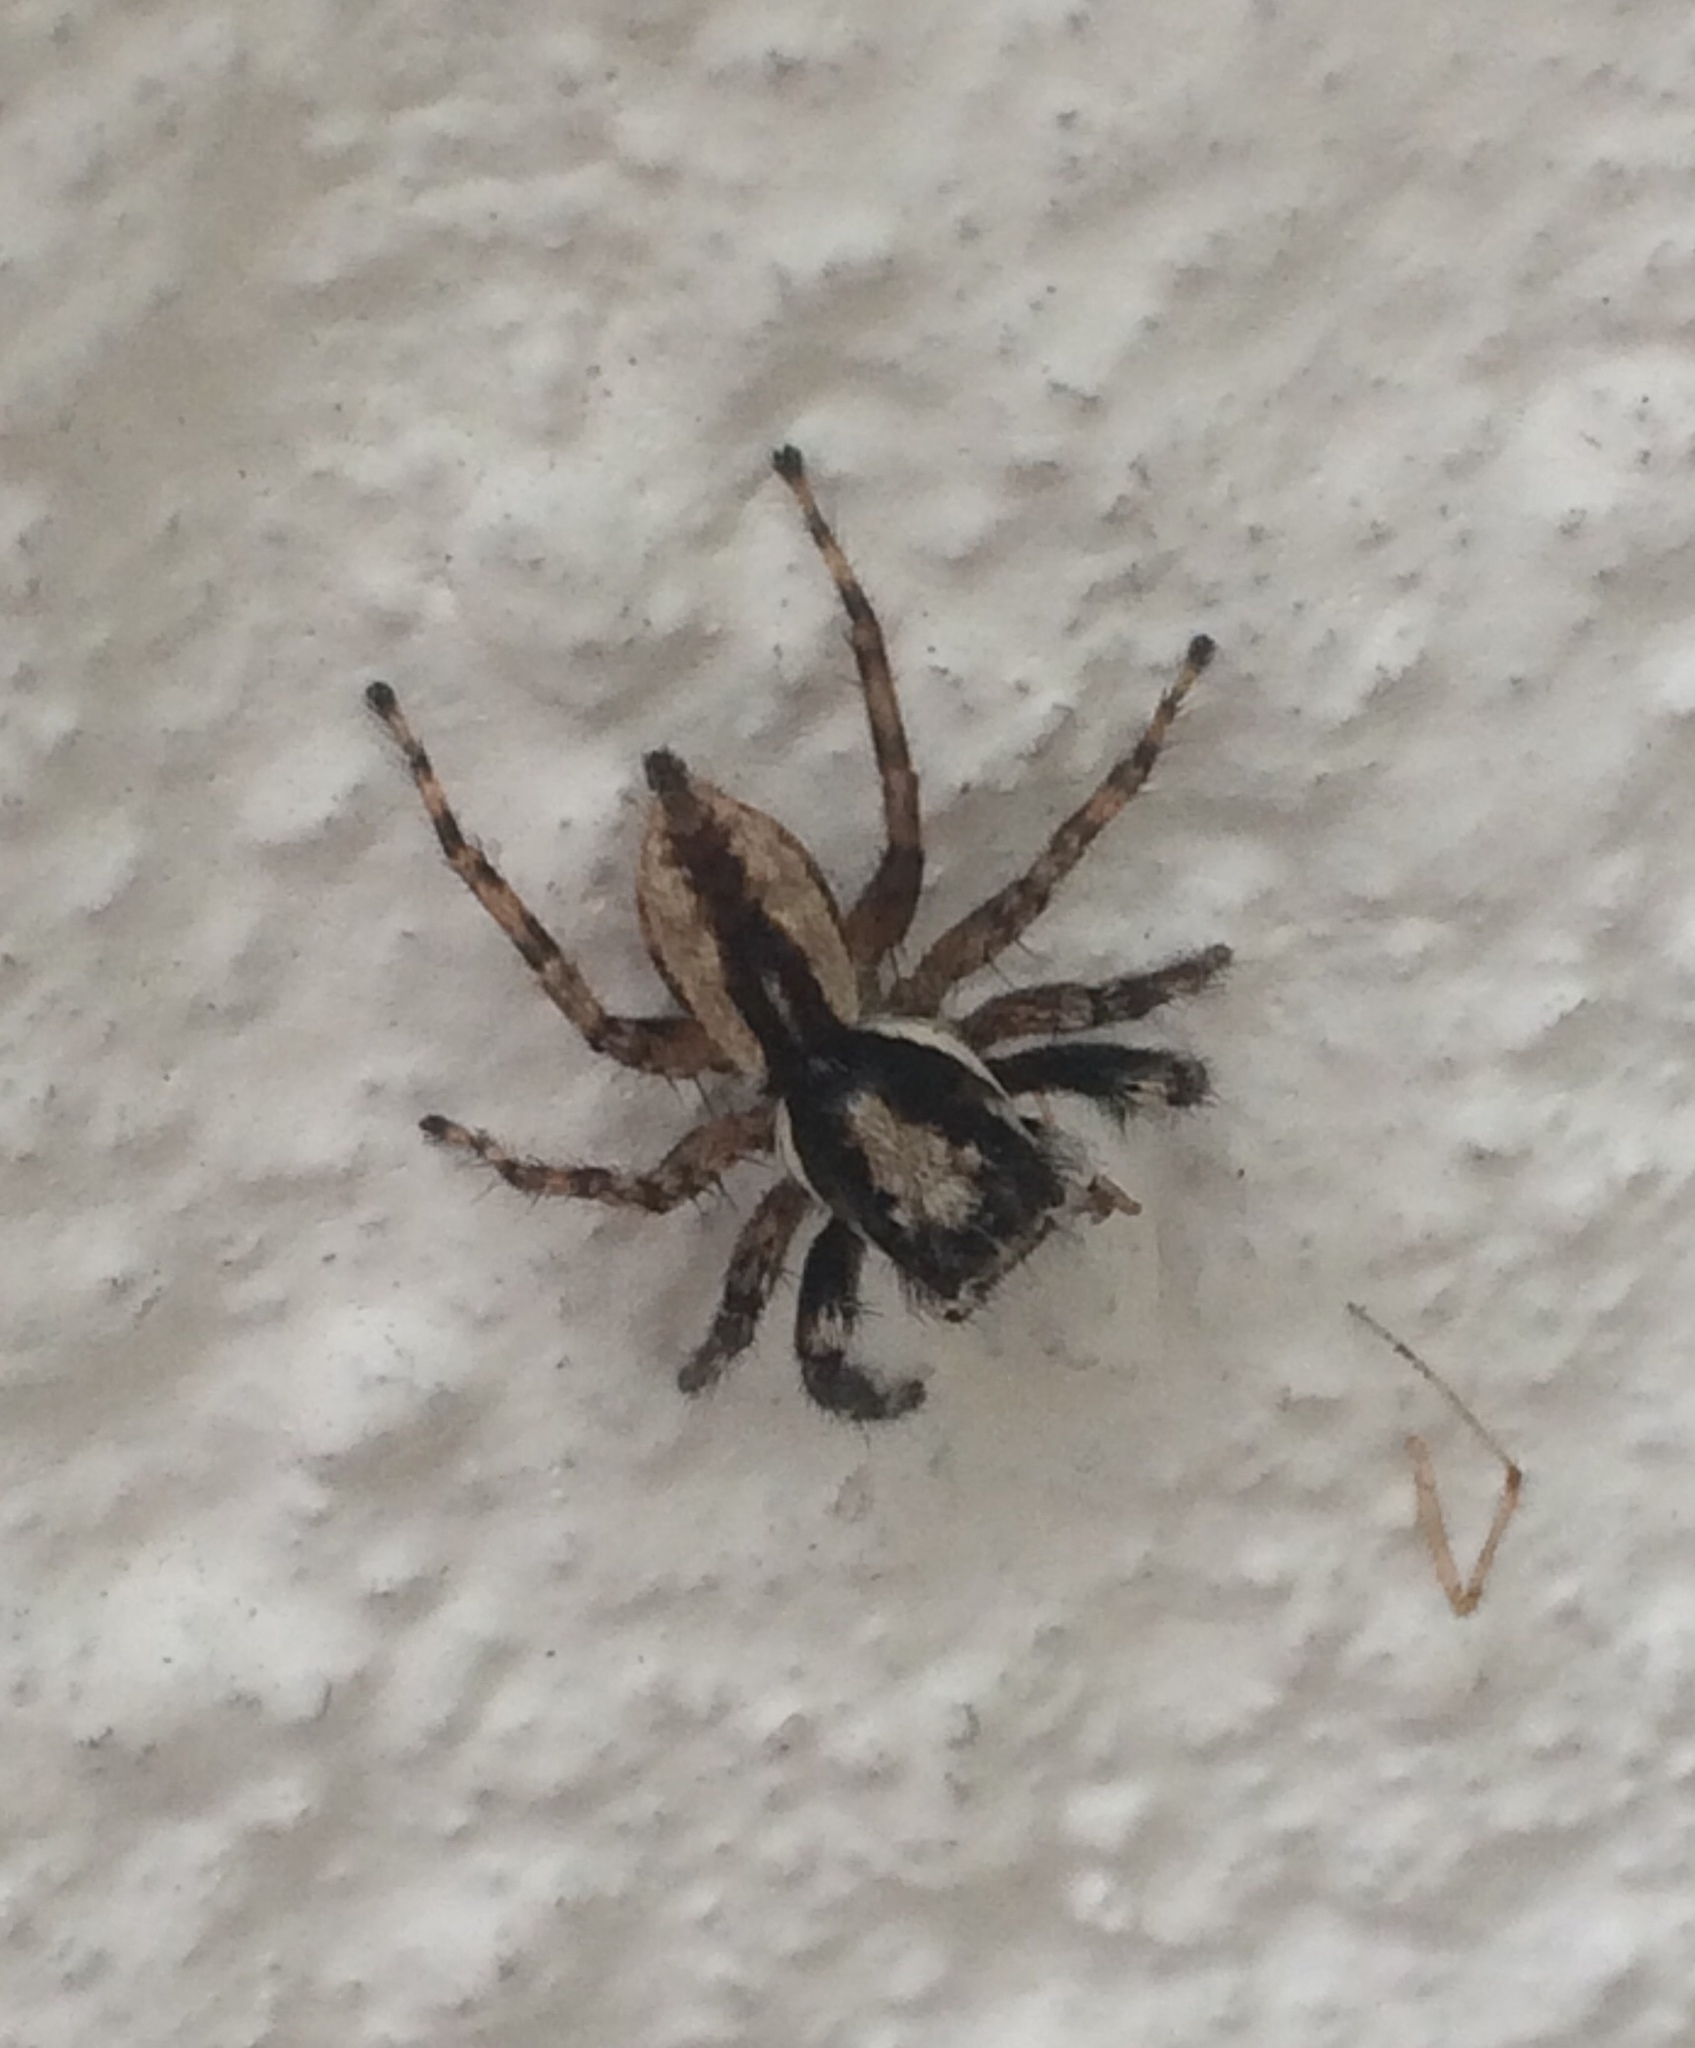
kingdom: Animalia
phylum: Arthropoda
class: Arachnida
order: Araneae
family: Salticidae
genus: Menemerus
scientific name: Menemerus bivittatus
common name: Gray wall jumper
